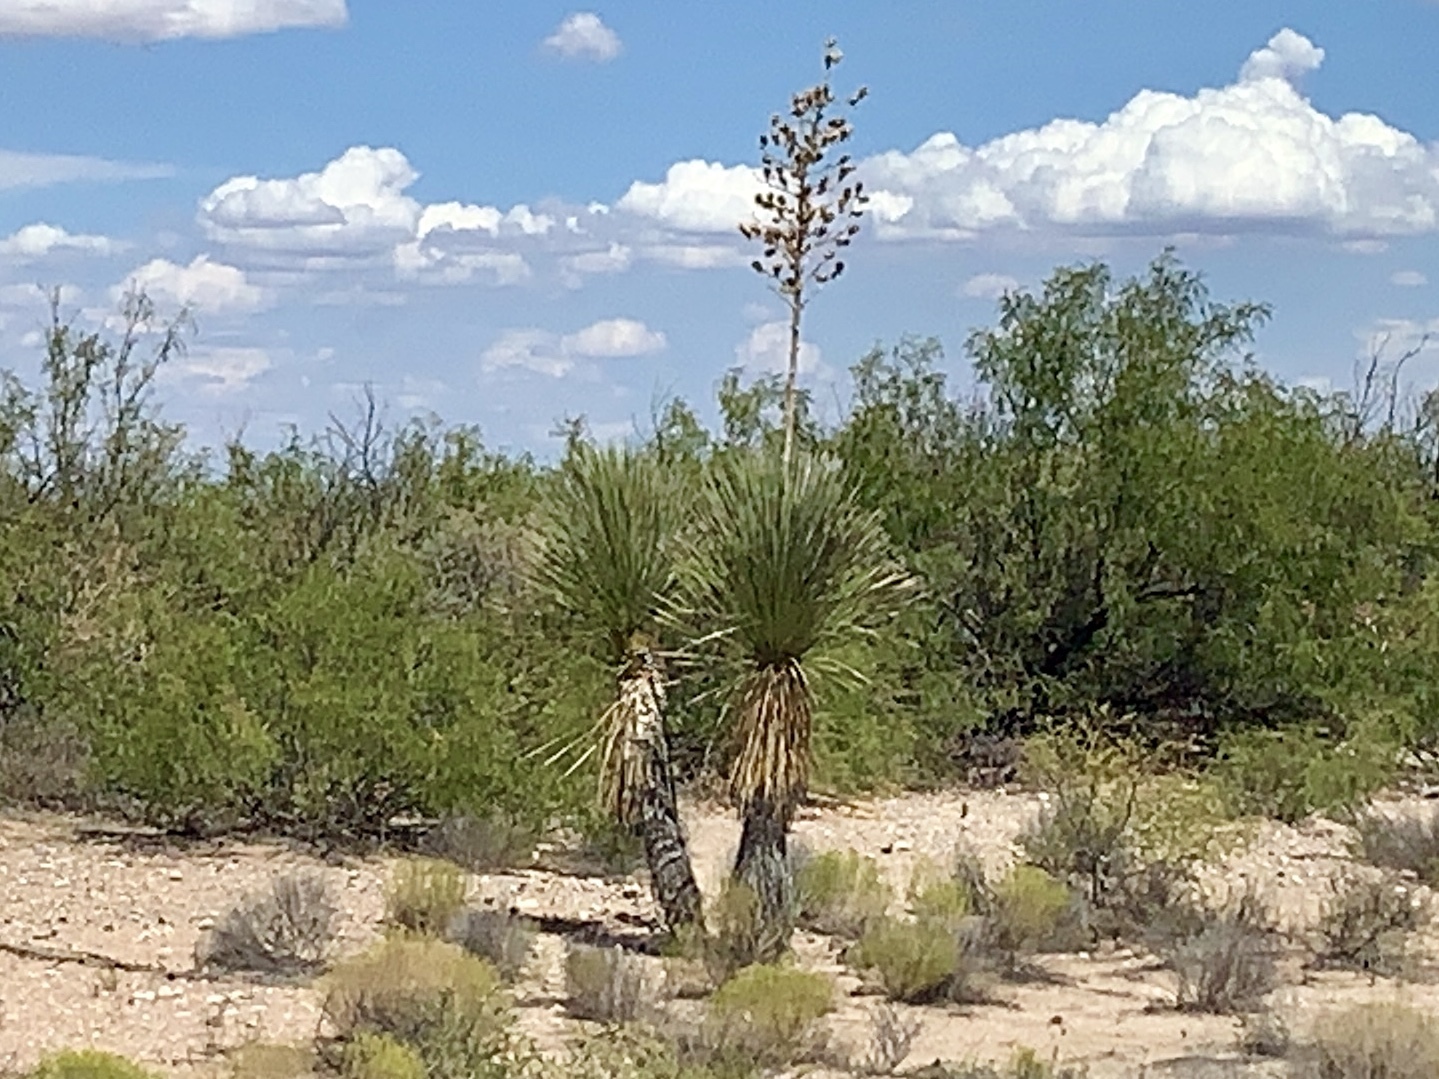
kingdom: Plantae
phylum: Tracheophyta
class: Liliopsida
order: Asparagales
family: Asparagaceae
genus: Yucca
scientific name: Yucca elata
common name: Palmella
